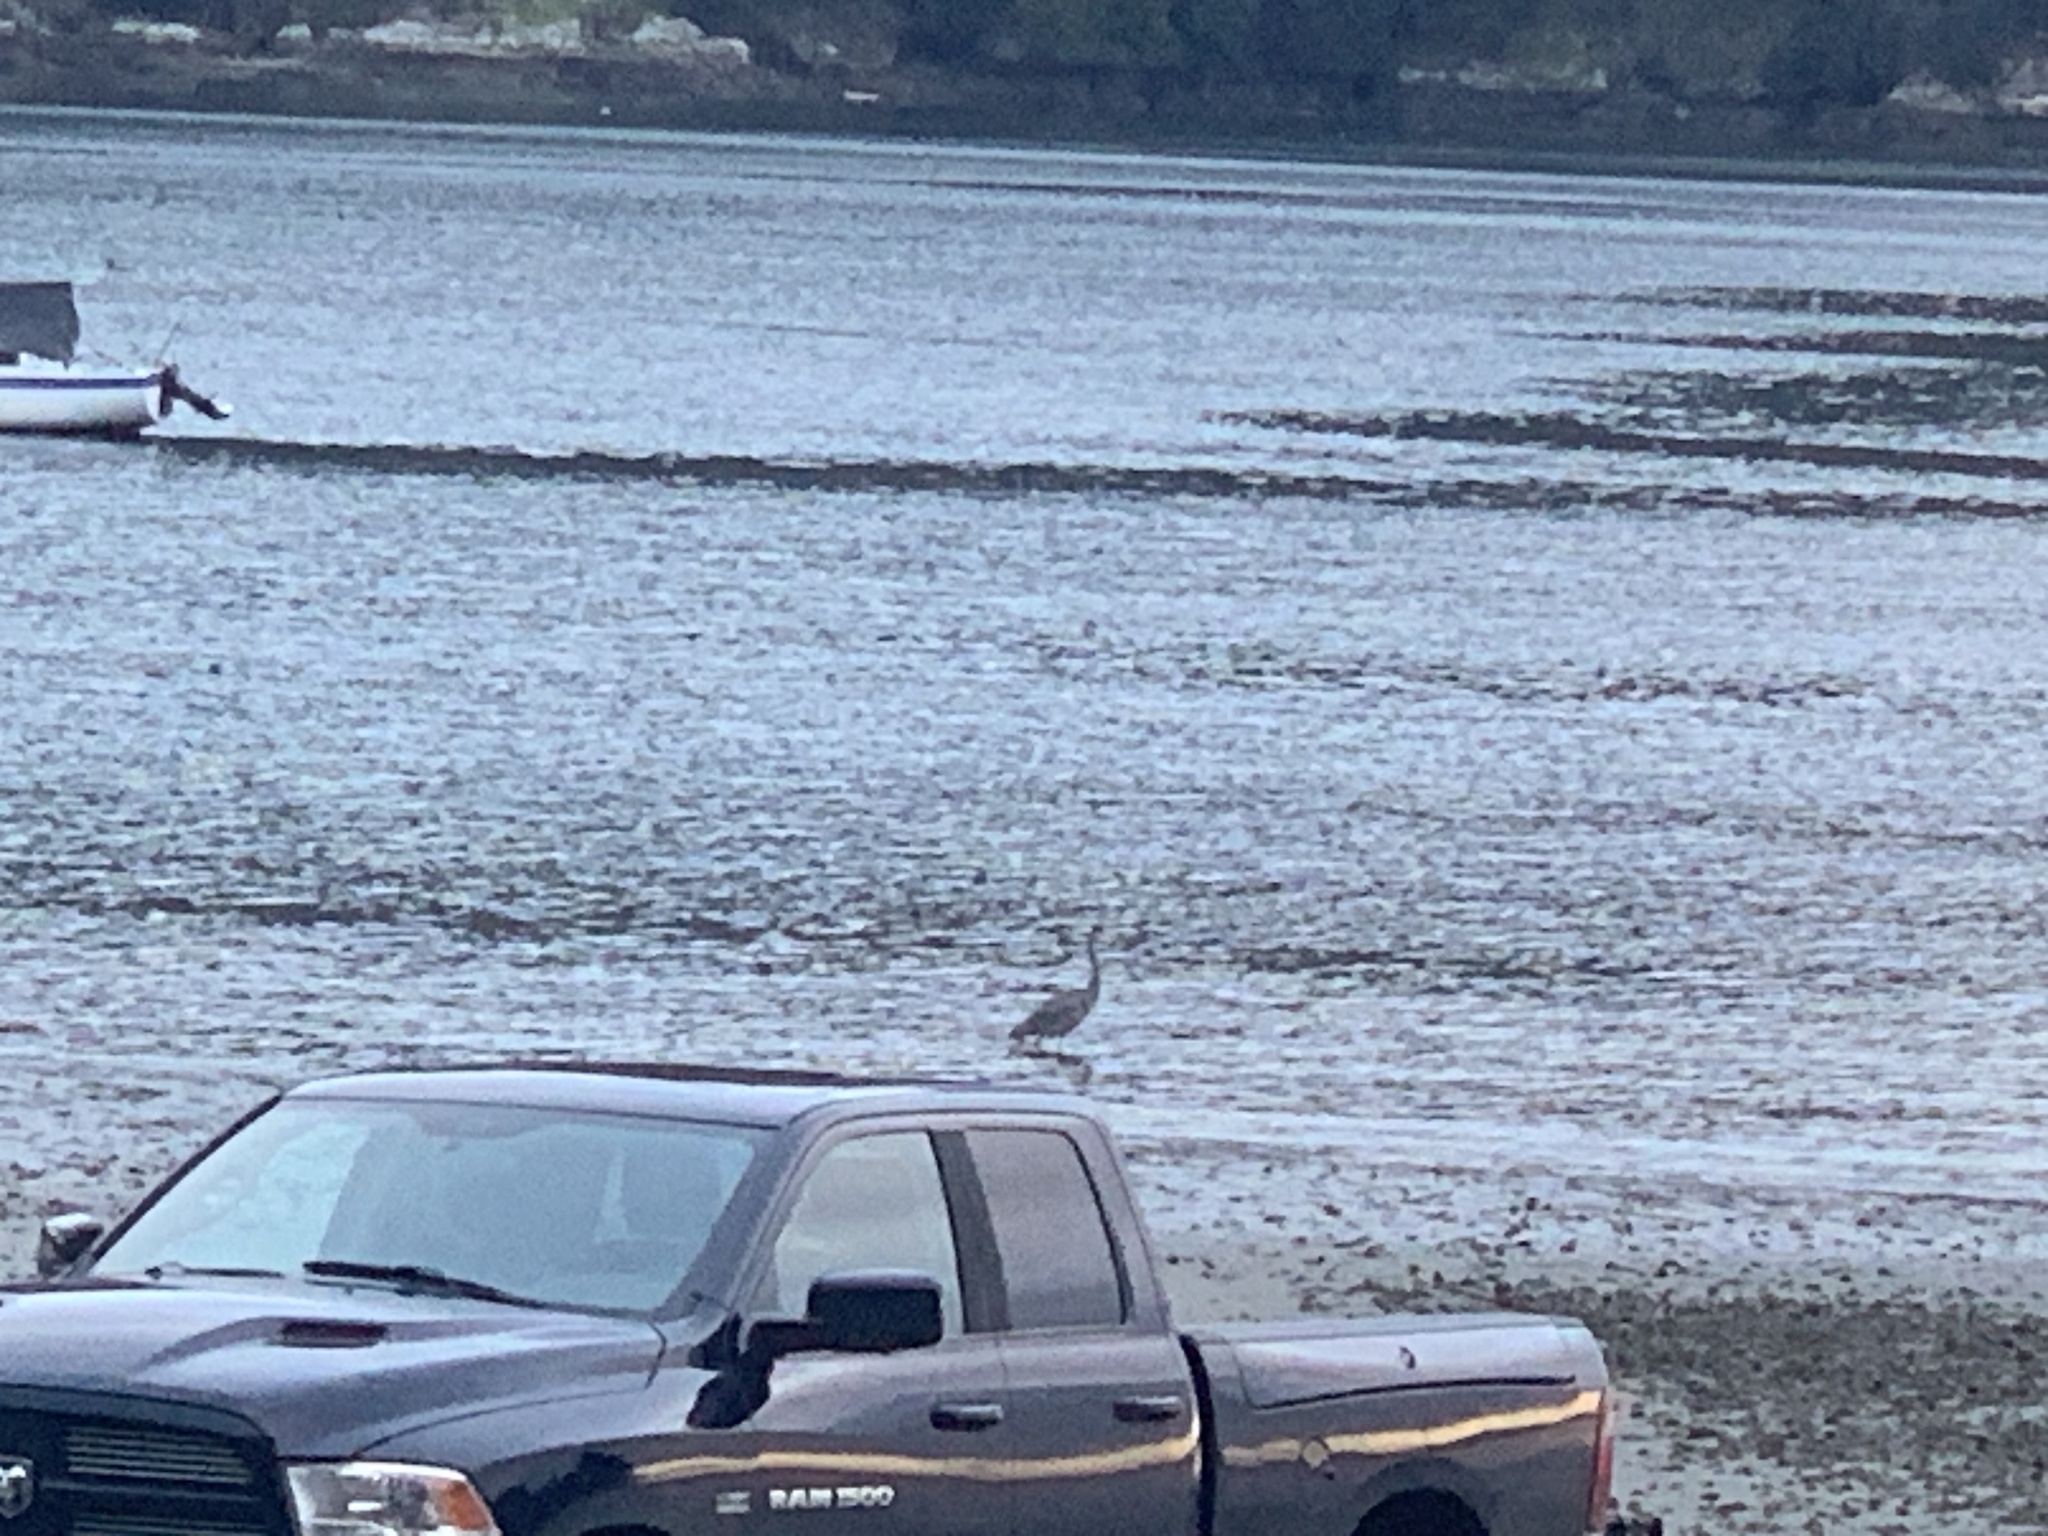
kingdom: Animalia
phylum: Chordata
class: Aves
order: Pelecaniformes
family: Ardeidae
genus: Ardea
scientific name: Ardea herodias
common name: Great blue heron
